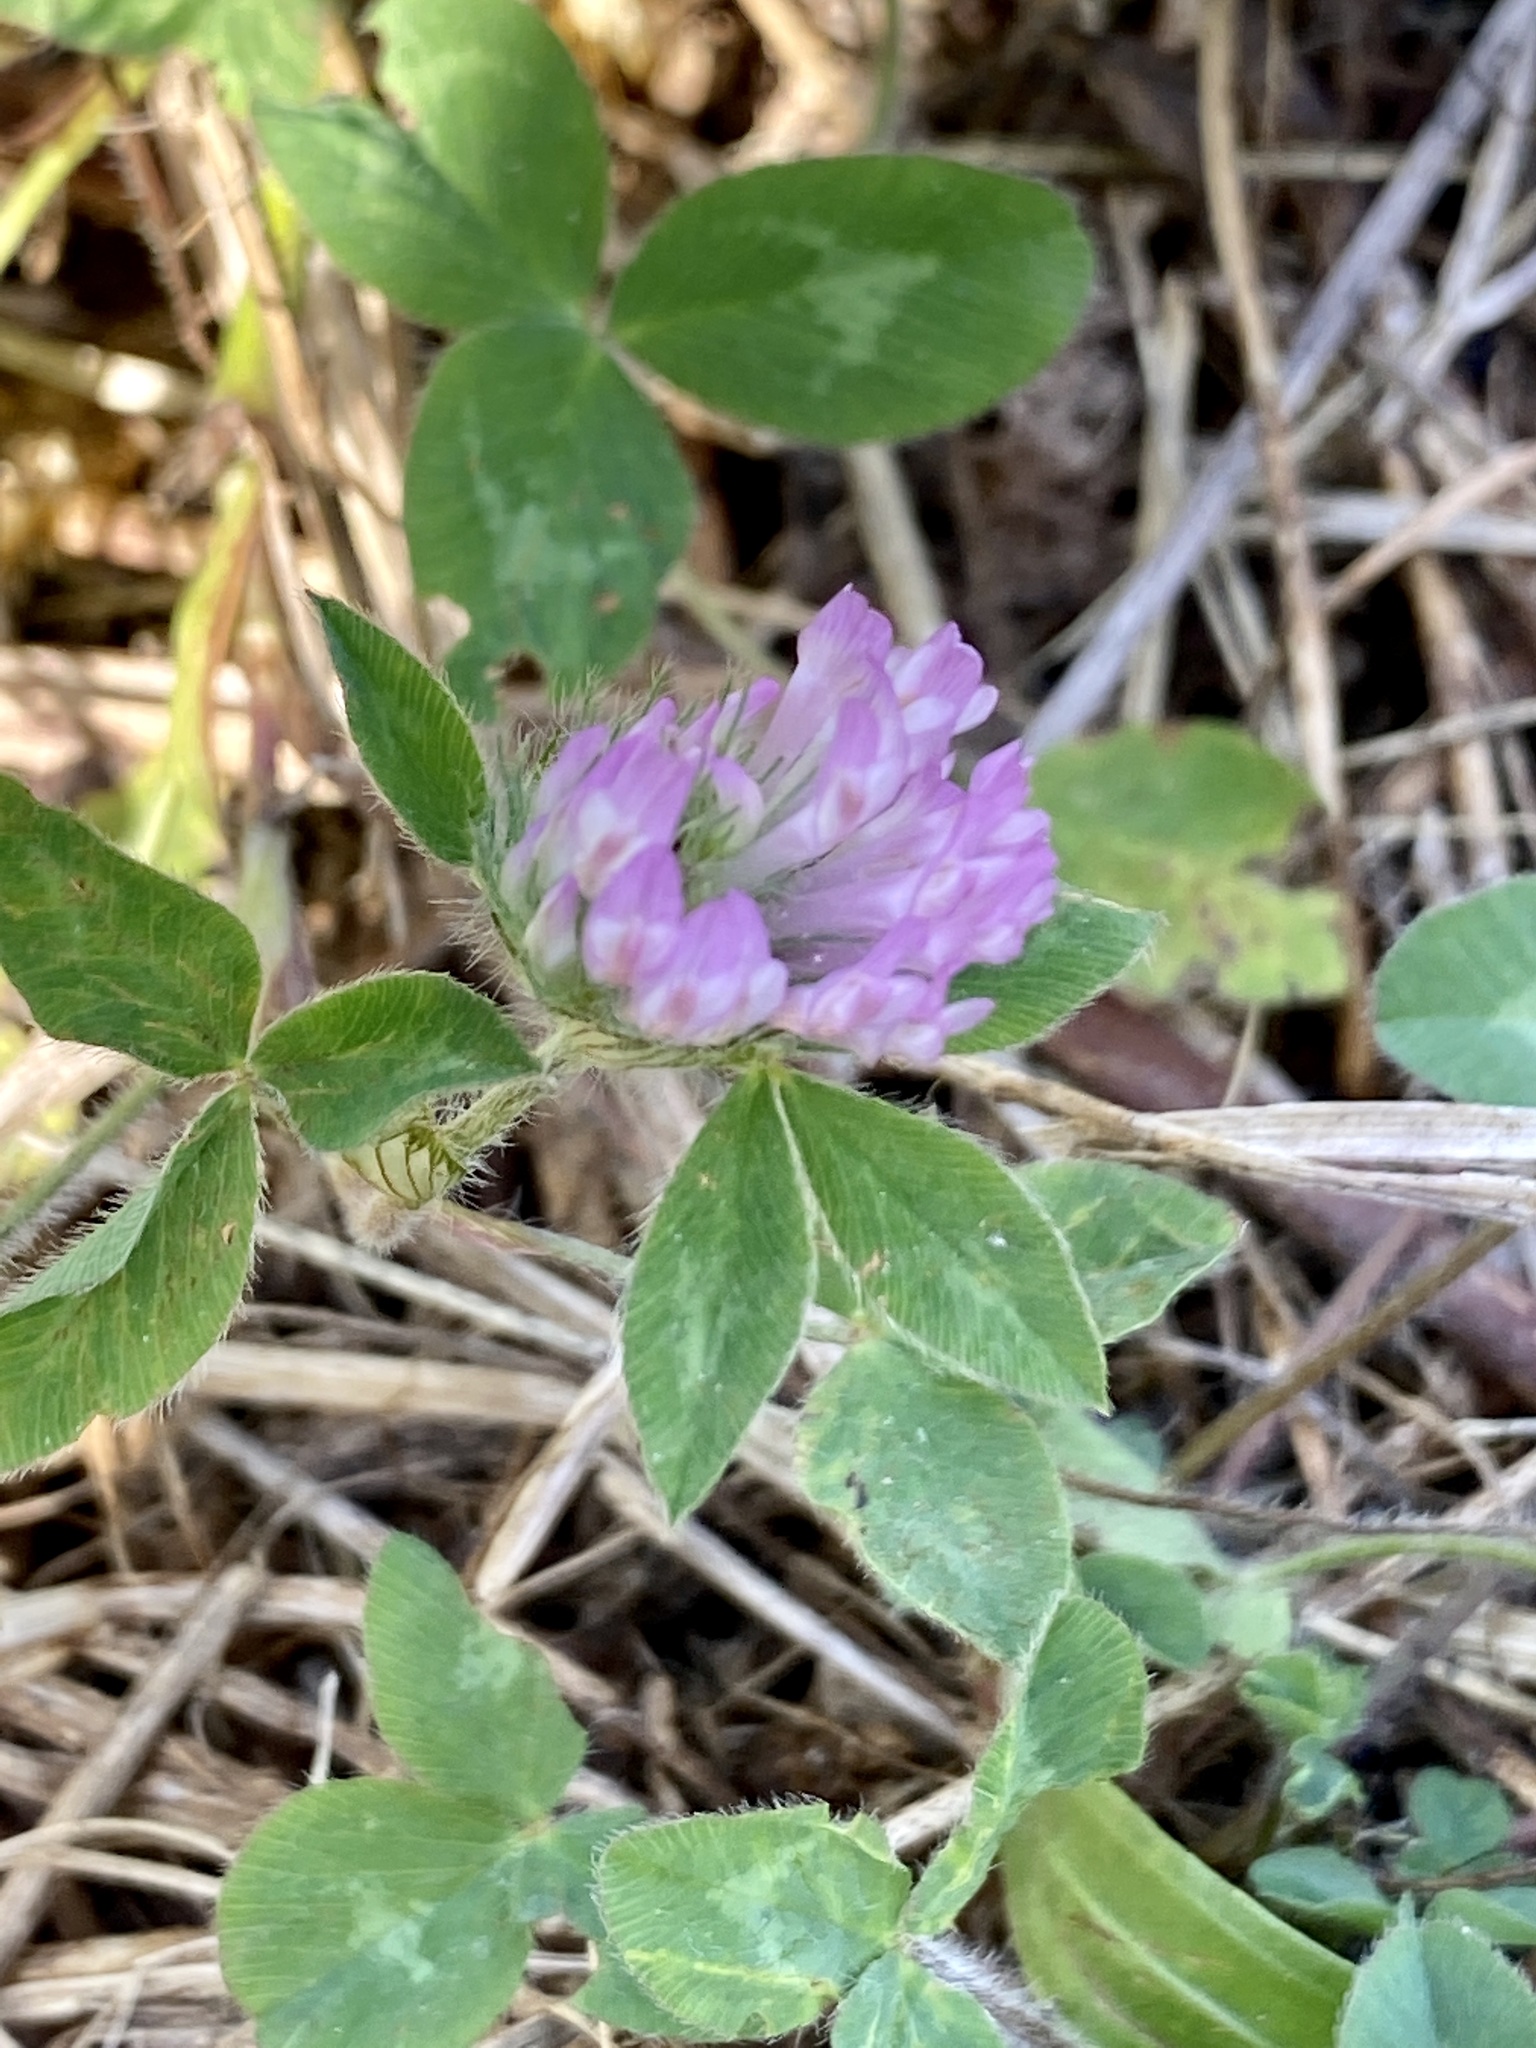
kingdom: Plantae
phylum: Tracheophyta
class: Magnoliopsida
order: Fabales
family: Fabaceae
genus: Trifolium
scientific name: Trifolium pratense
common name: Red clover
